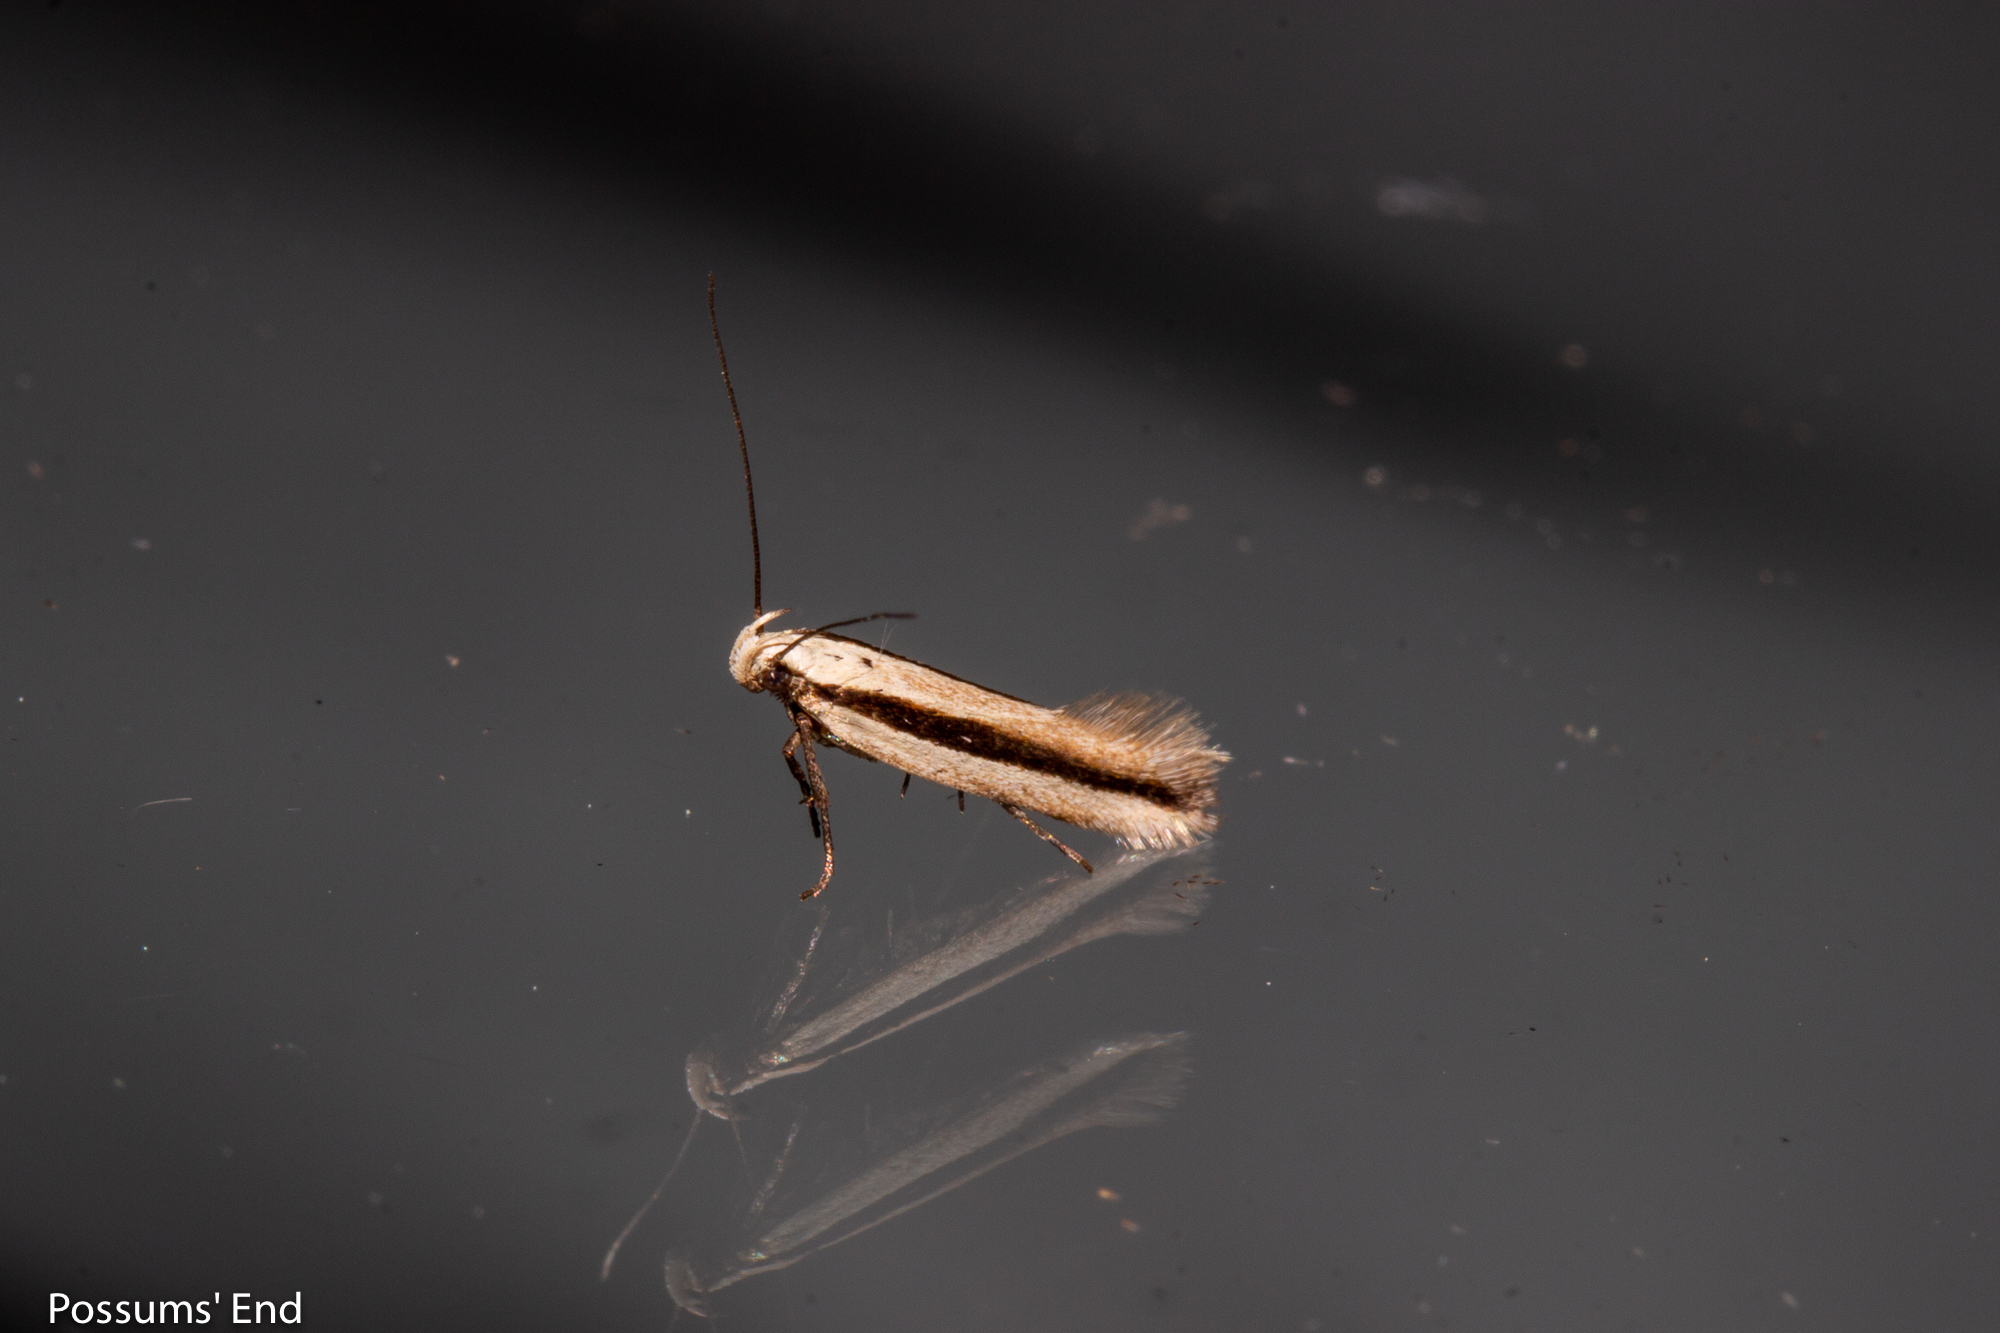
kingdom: Animalia
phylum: Arthropoda
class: Insecta
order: Lepidoptera
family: Gelechiidae
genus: Kiwaia
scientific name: Kiwaia monophragma
